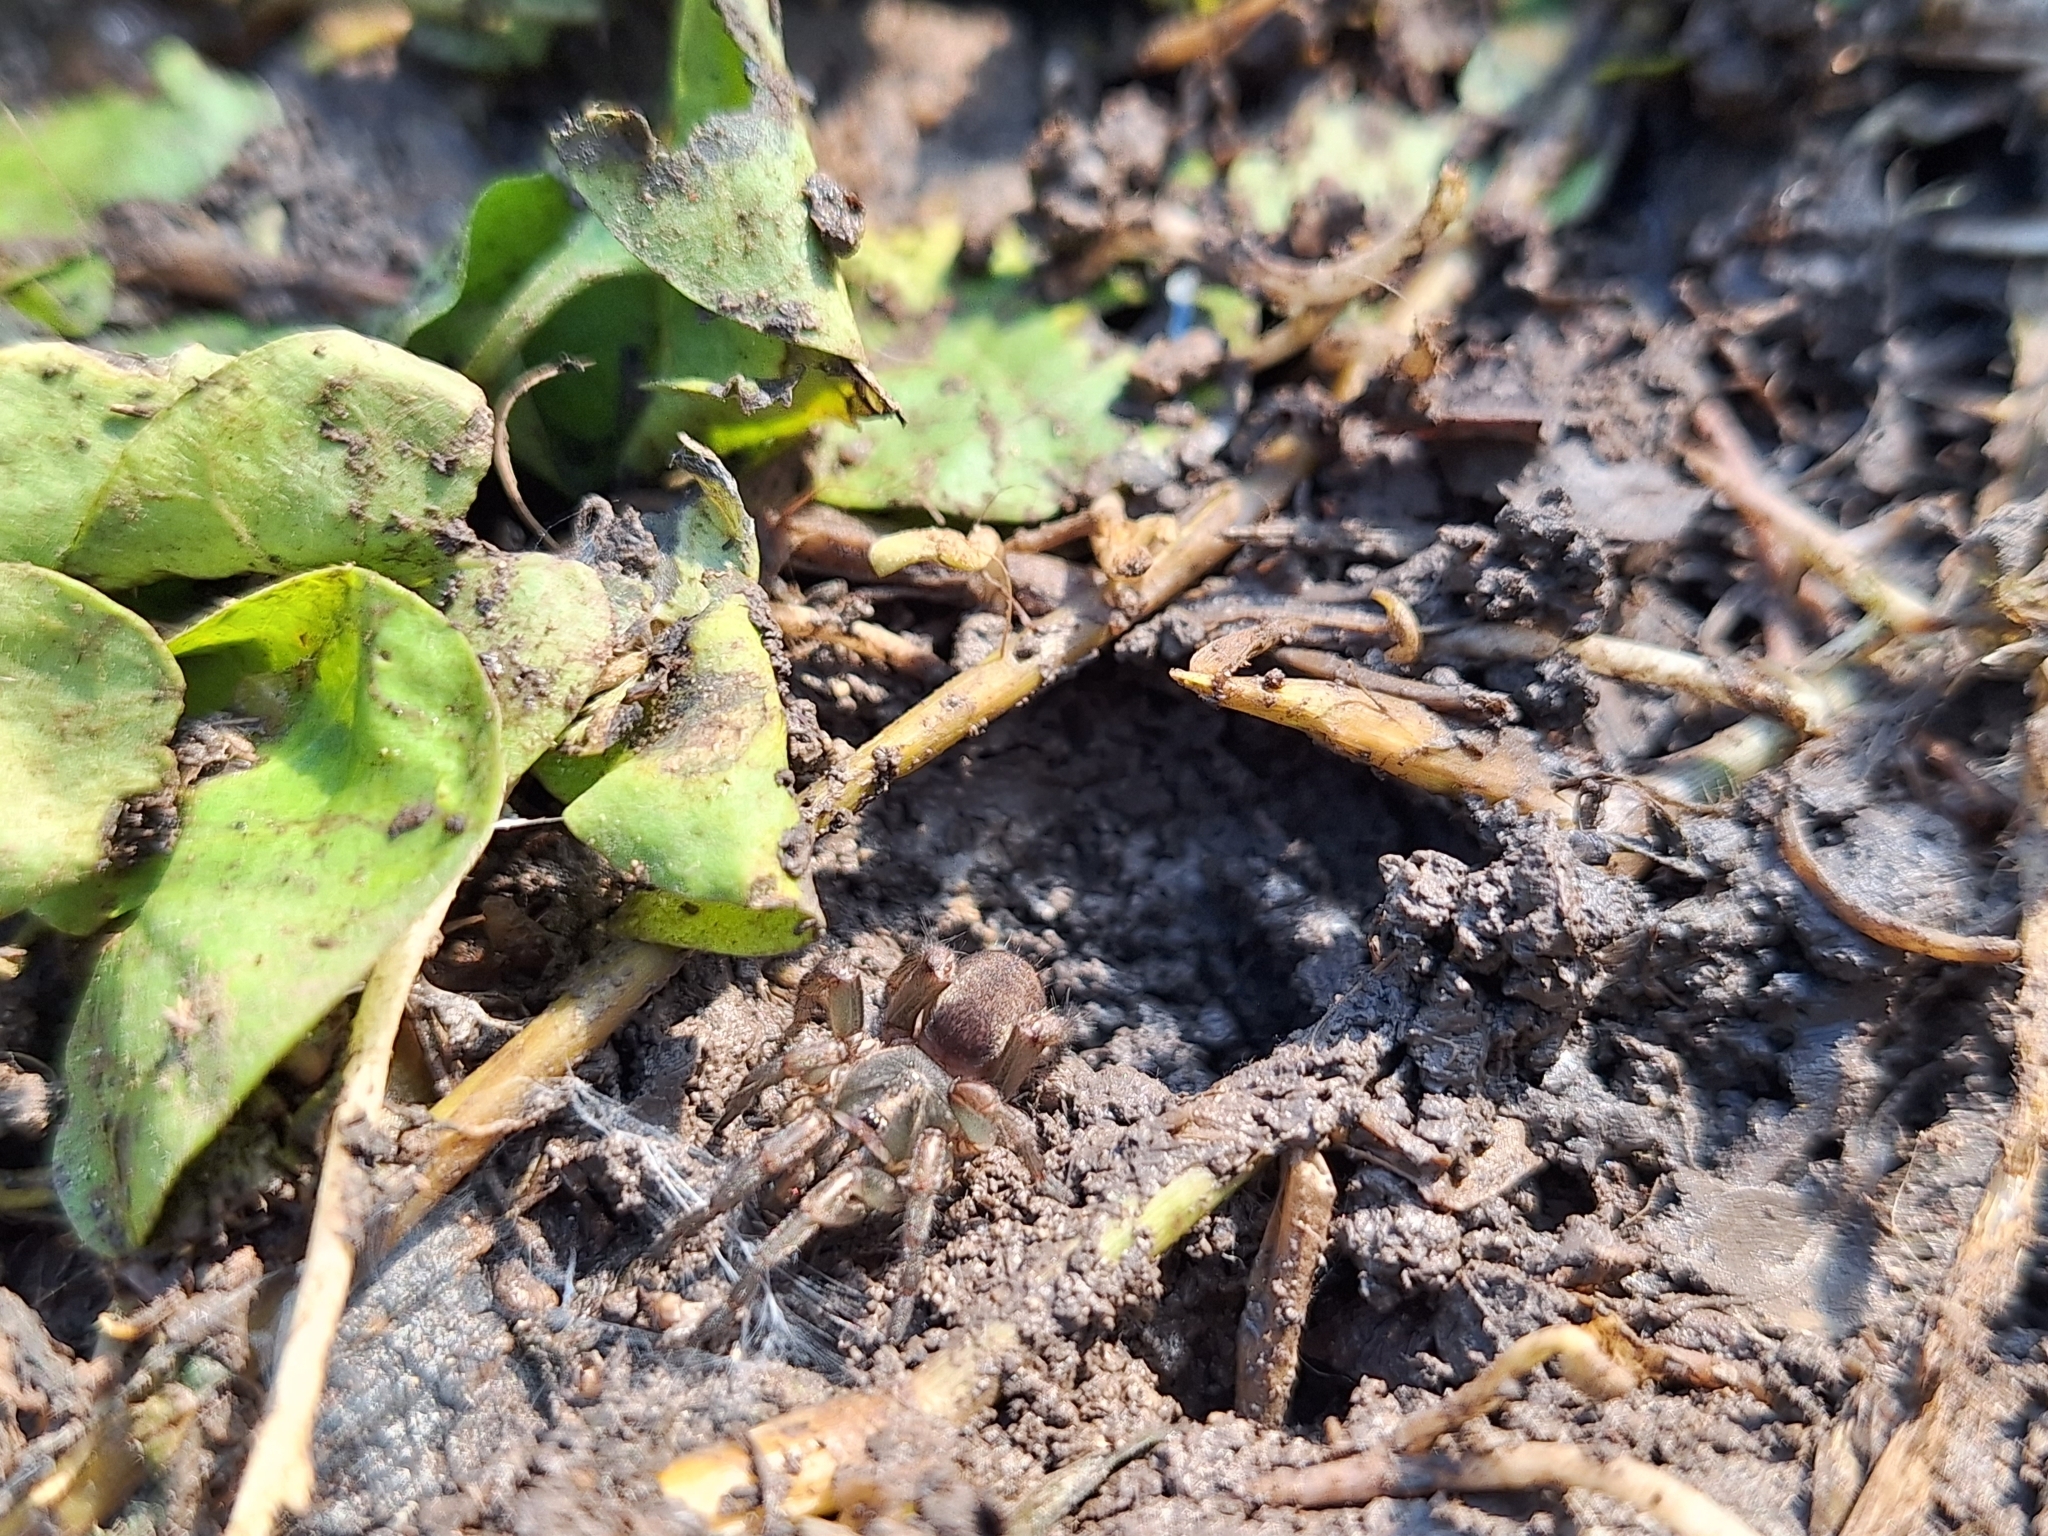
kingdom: Animalia
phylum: Arthropoda
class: Arachnida
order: Araneae
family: Pycnothelidae
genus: Stenoterommata
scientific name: Stenoterommata platensis
